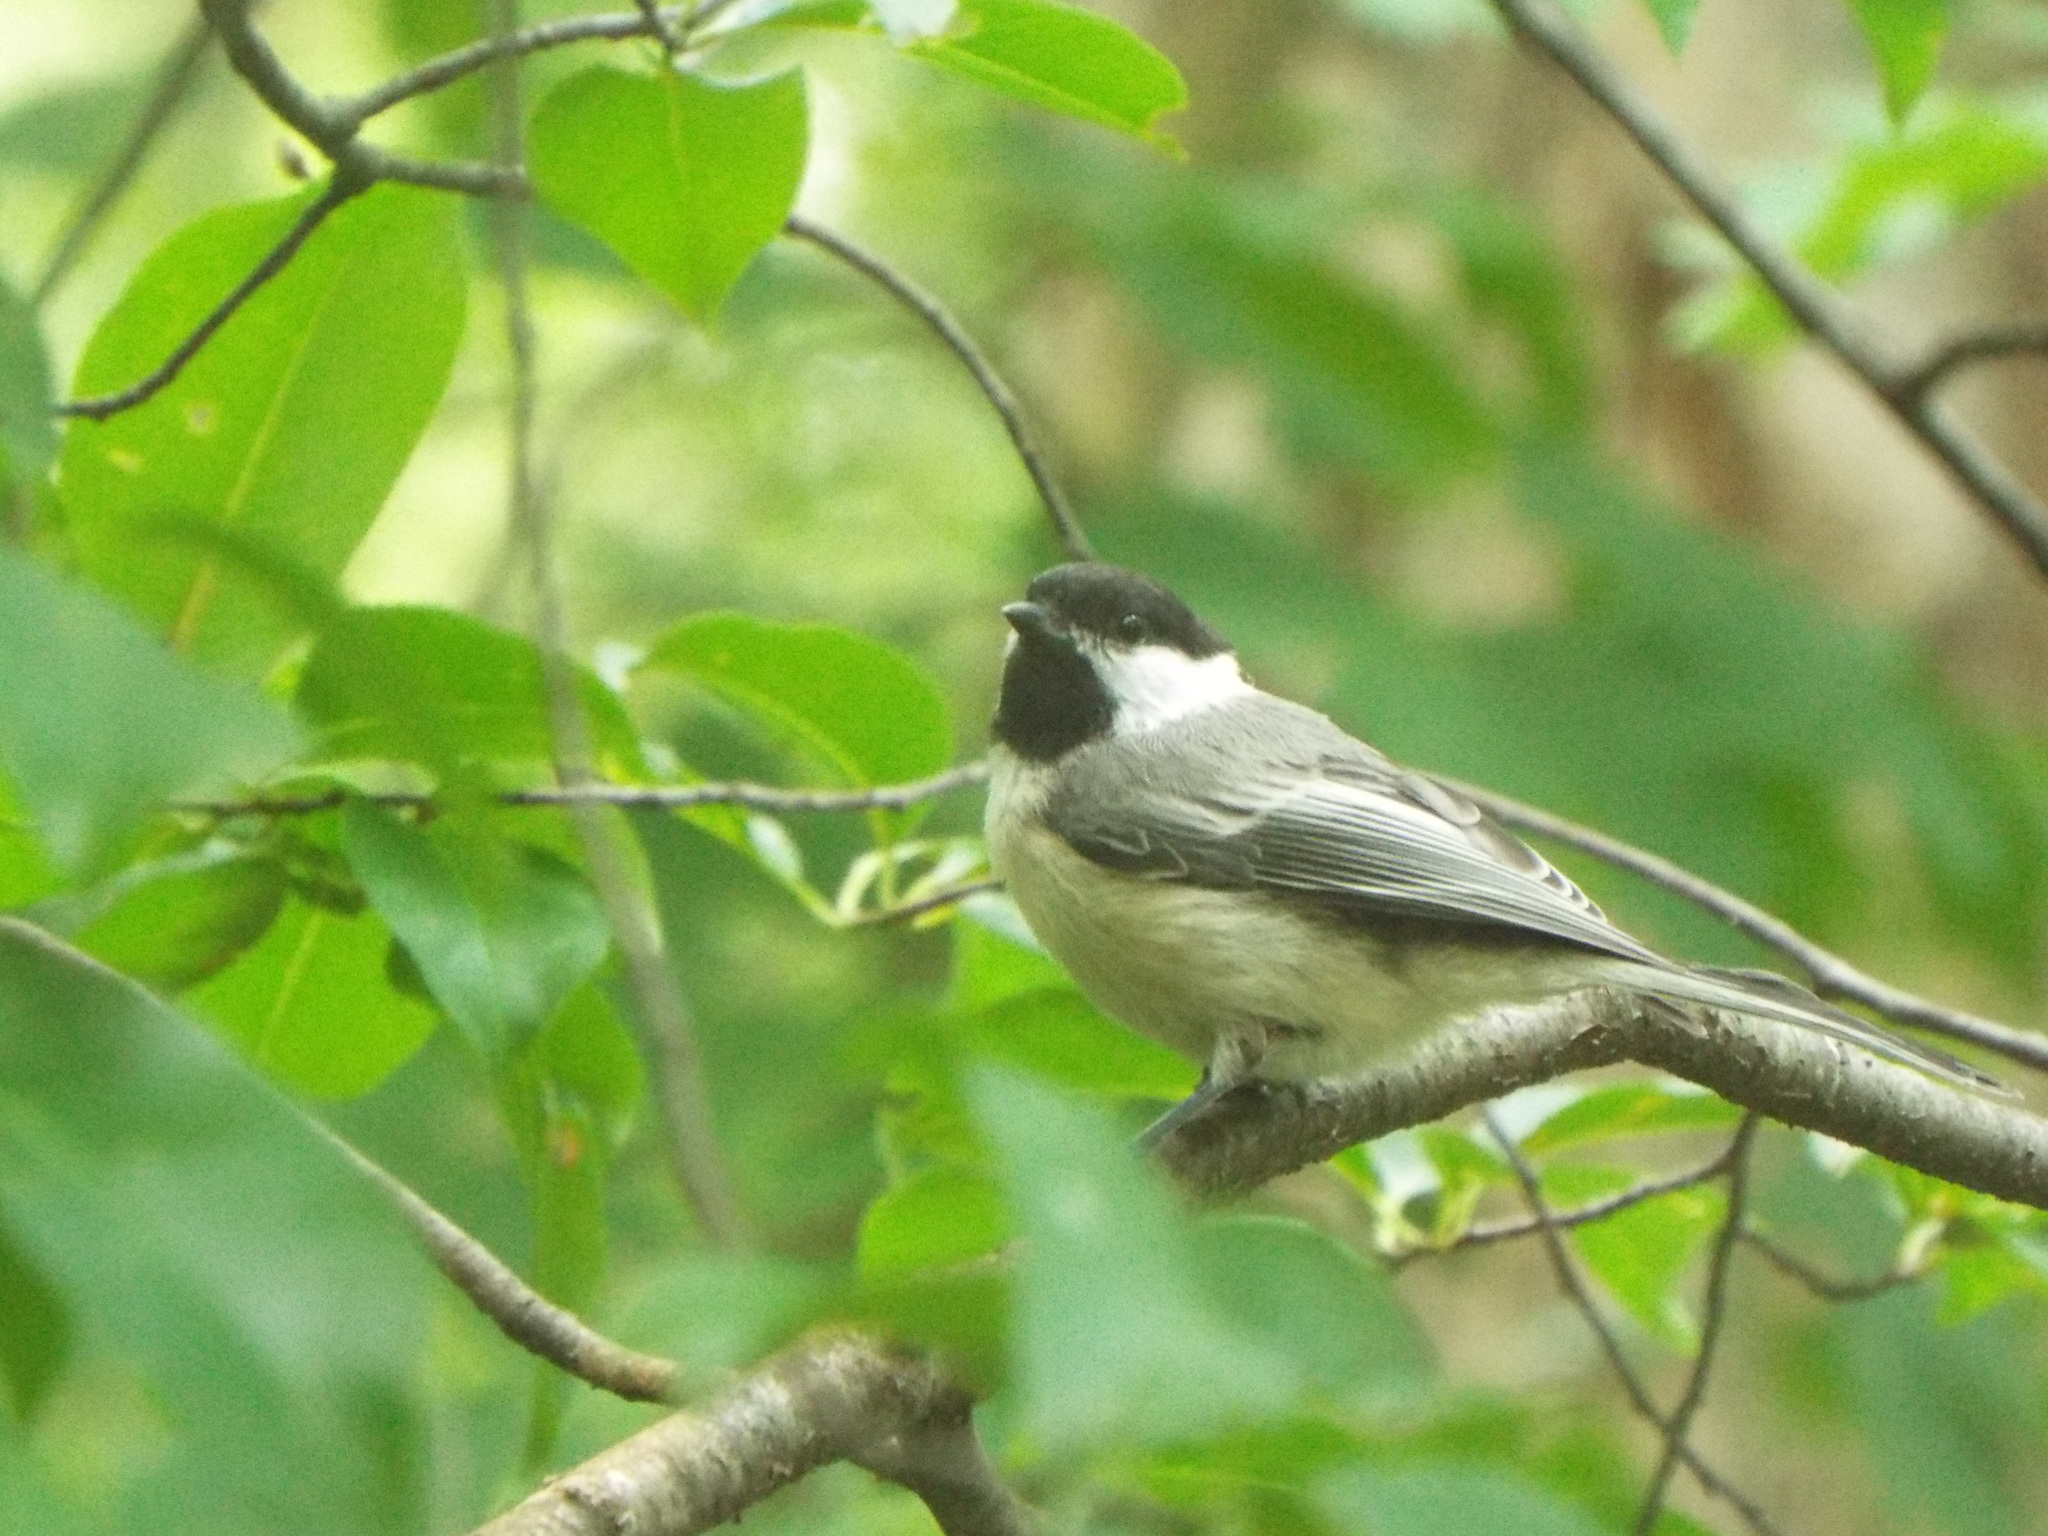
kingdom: Animalia
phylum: Chordata
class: Aves
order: Passeriformes
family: Paridae
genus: Poecile
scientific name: Poecile atricapillus
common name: Black-capped chickadee
